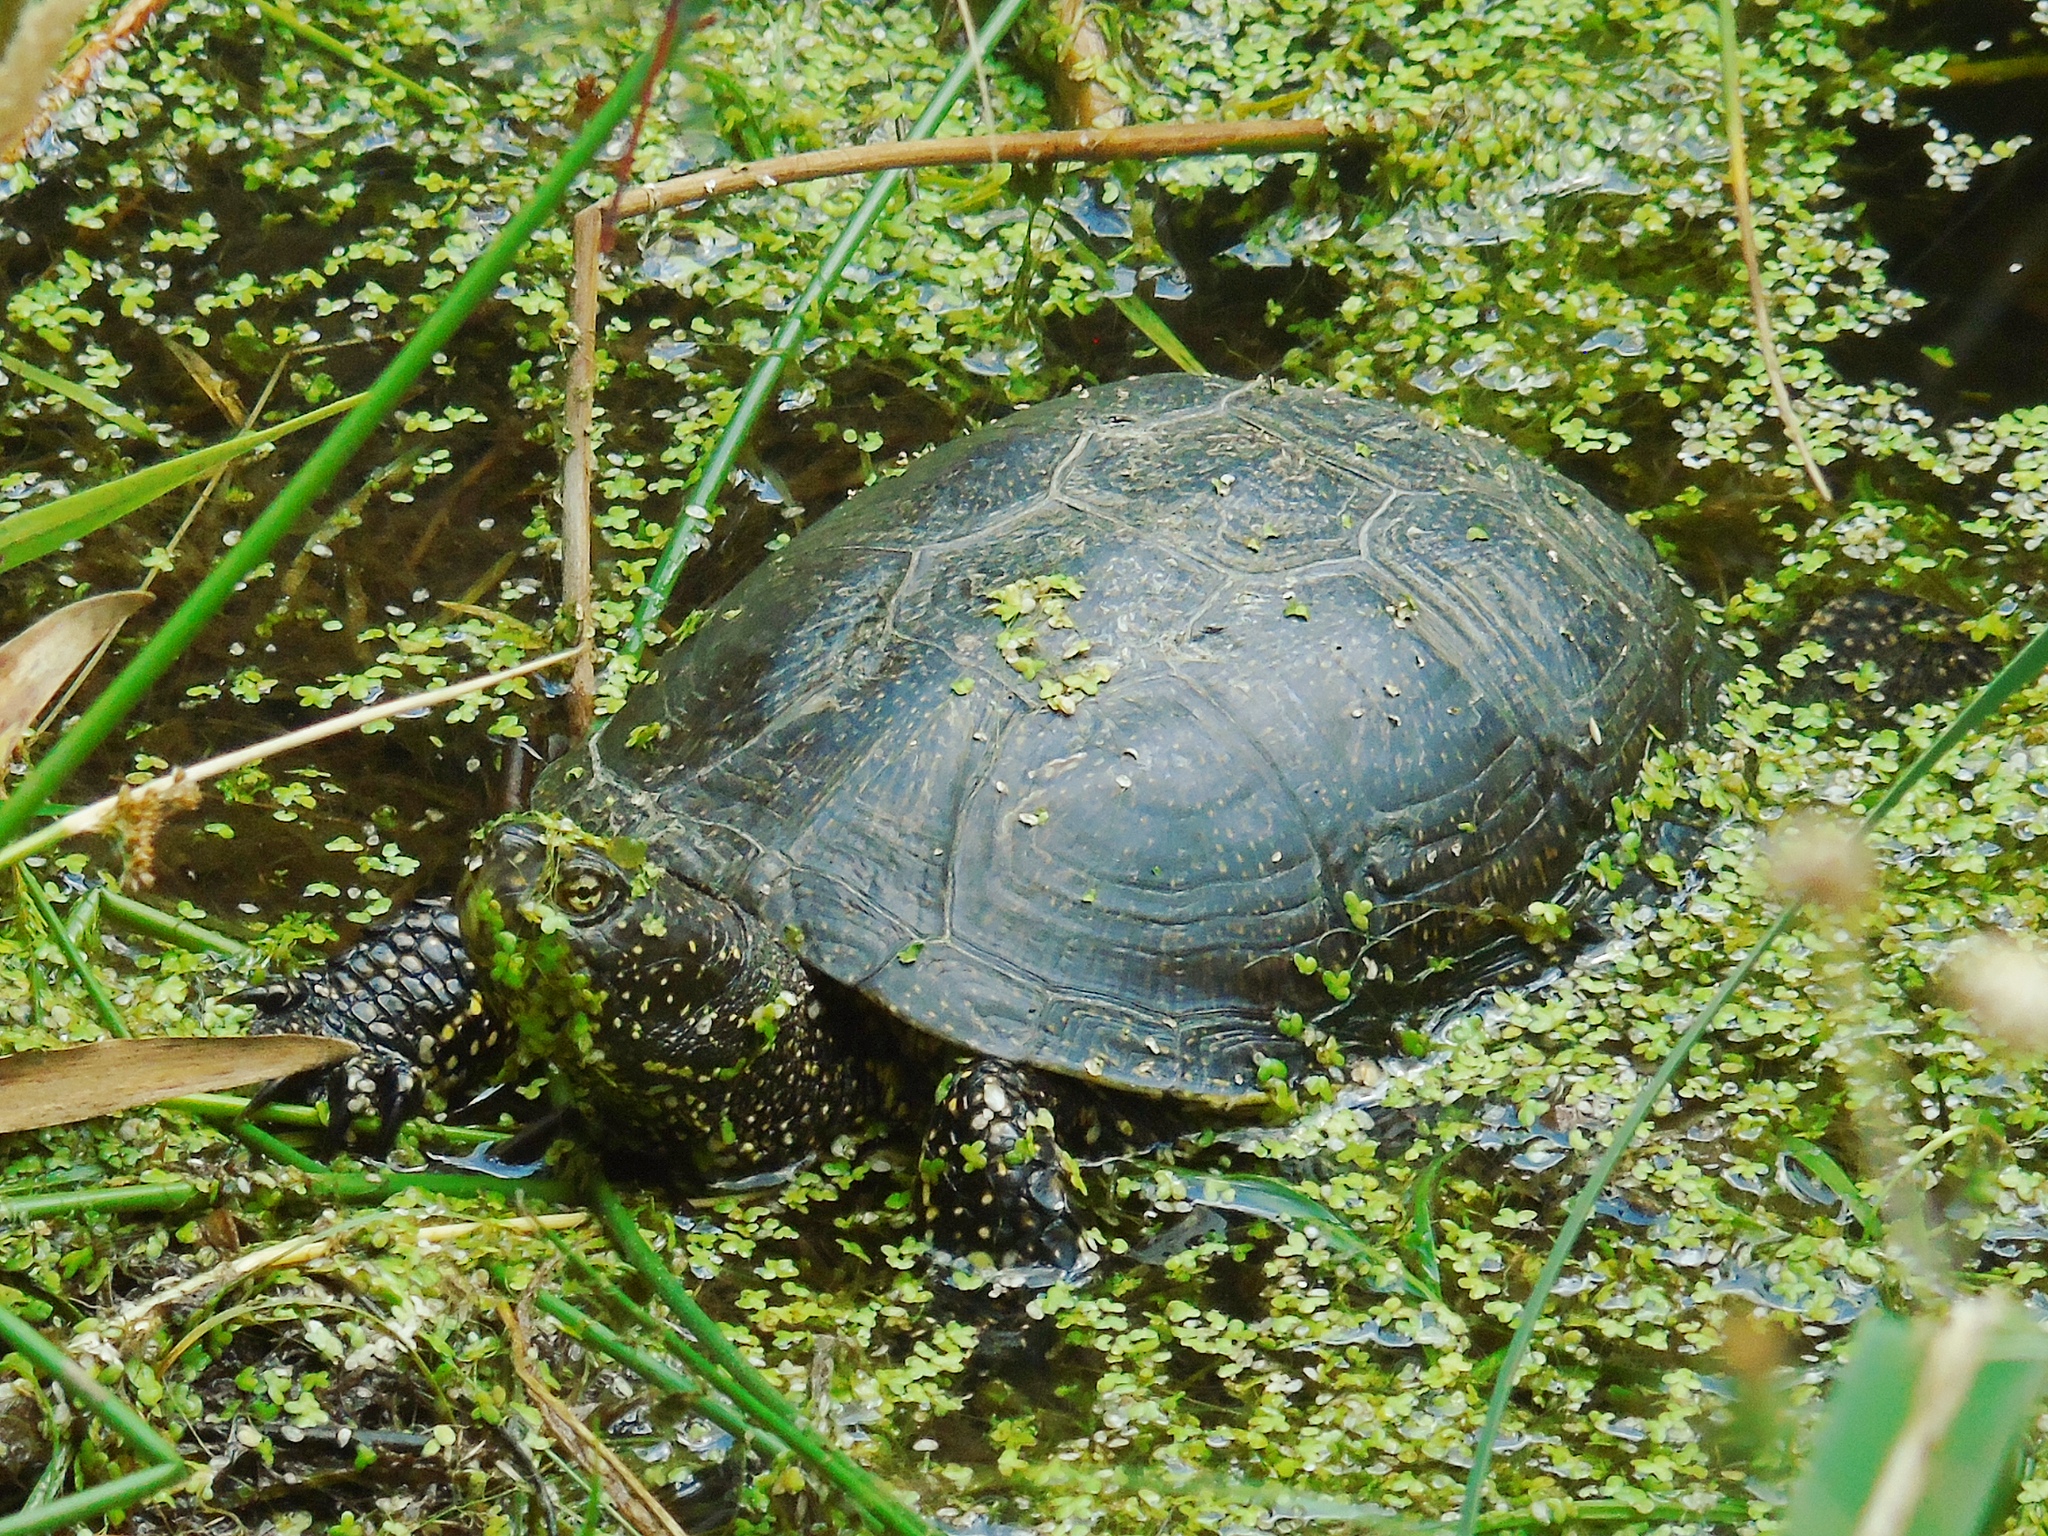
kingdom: Animalia
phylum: Chordata
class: Testudines
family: Emydidae
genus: Emys
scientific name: Emys orbicularis
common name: European pond turtle
